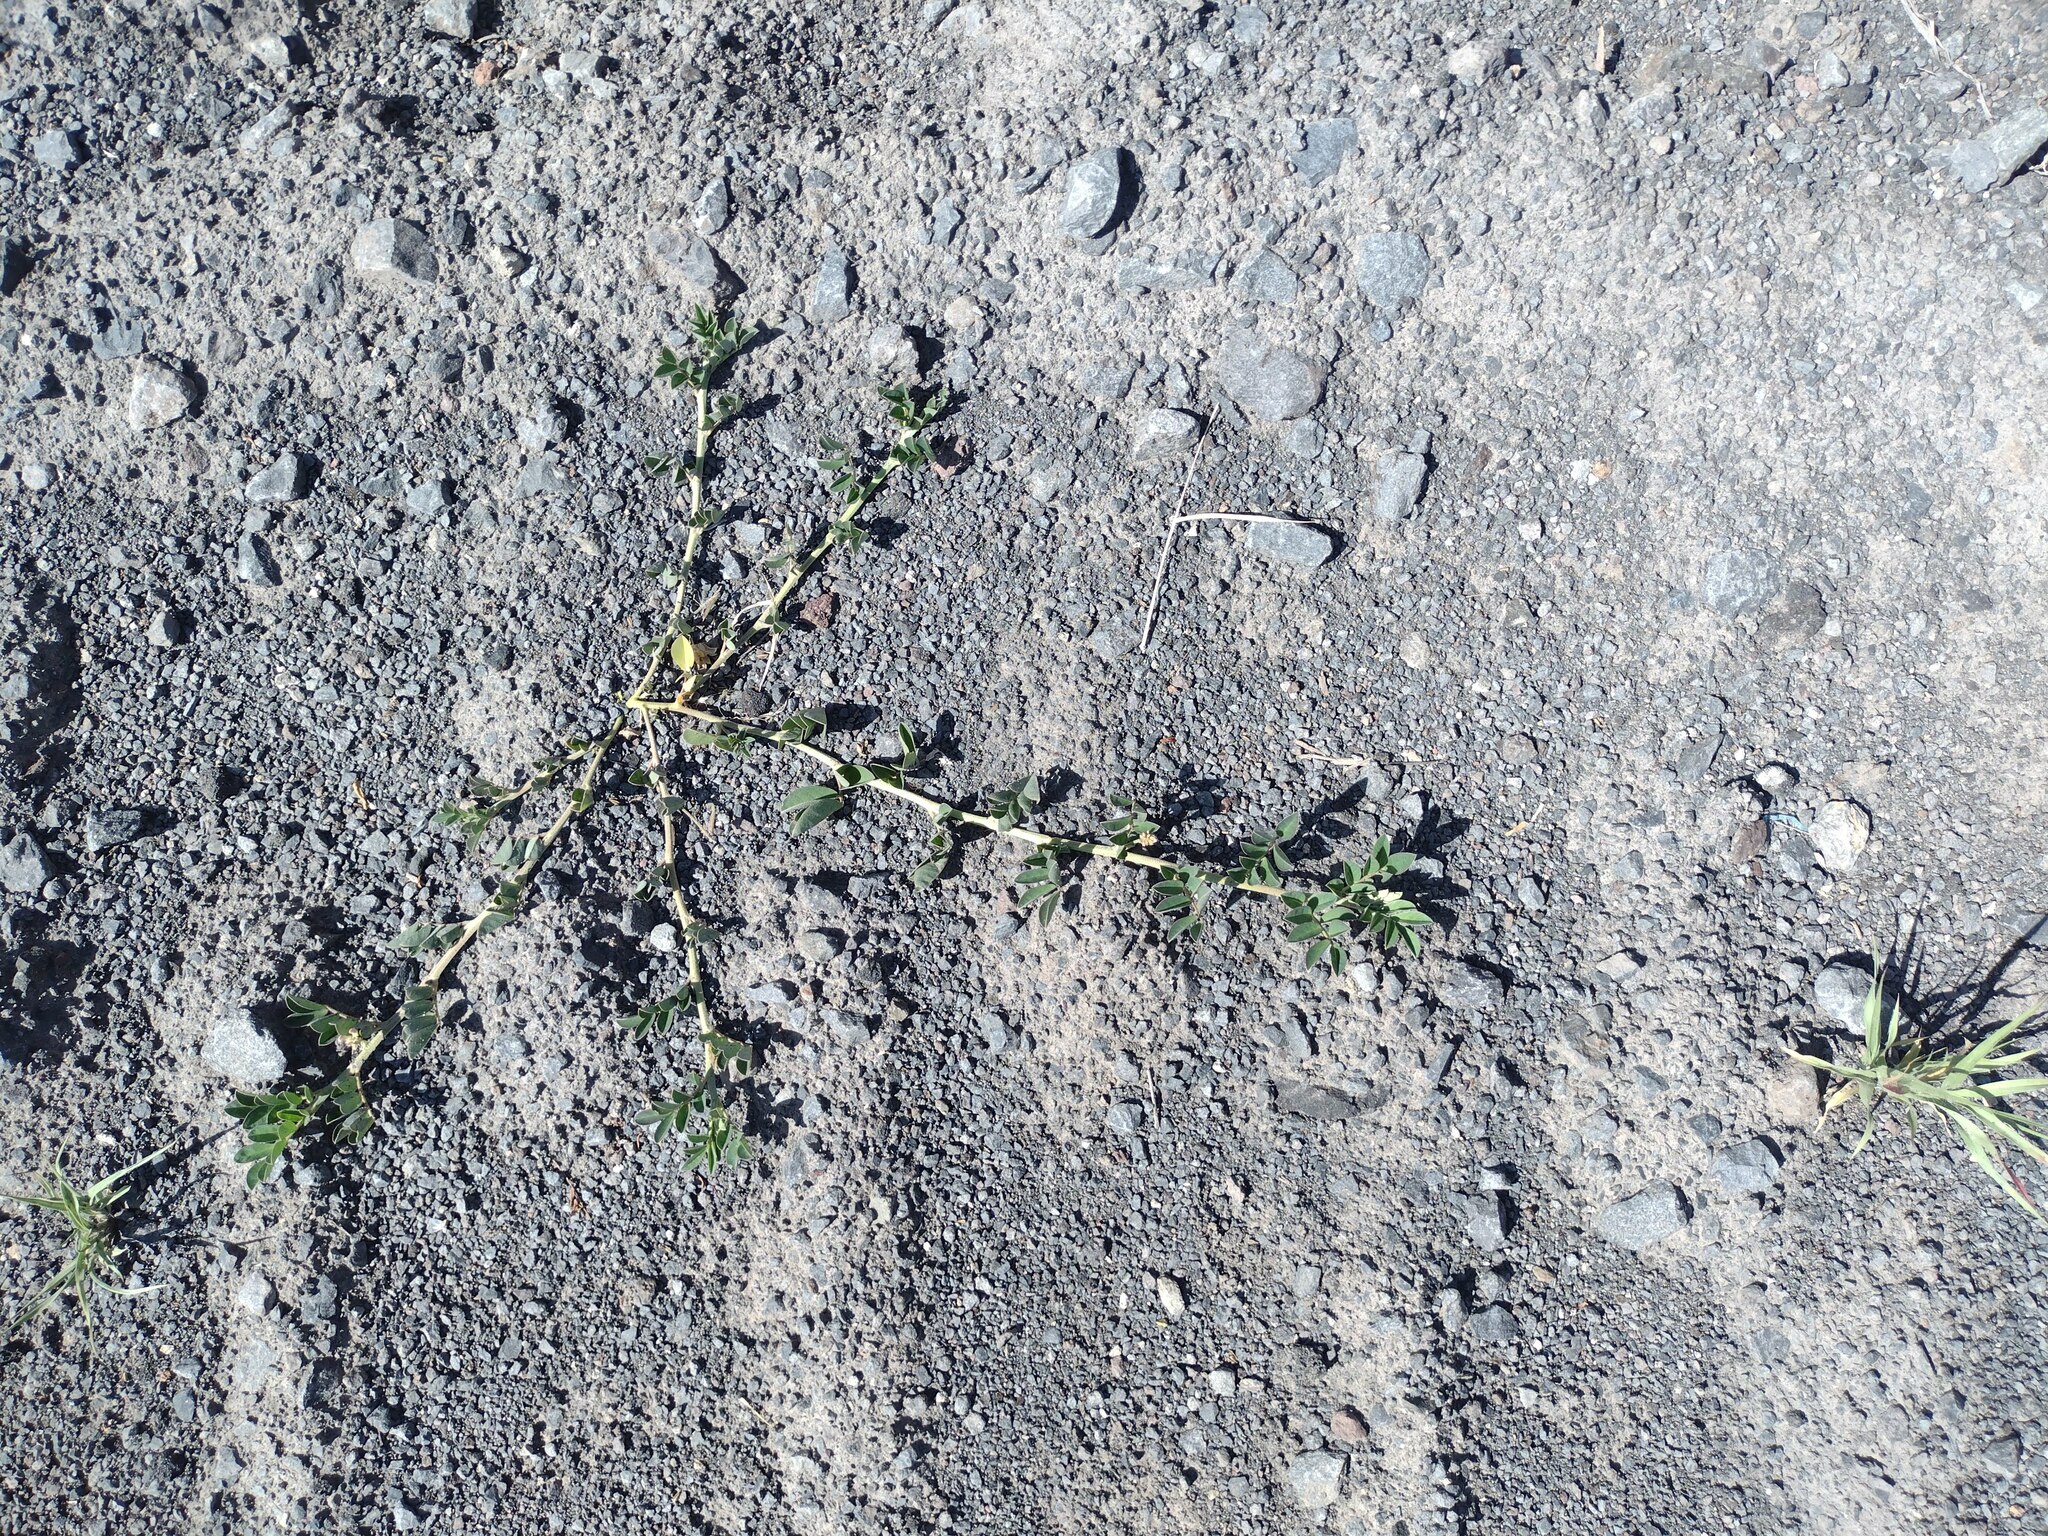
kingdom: Plantae
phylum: Tracheophyta
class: Magnoliopsida
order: Fabales
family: Fabaceae
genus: Indigofera
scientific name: Indigofera spicata
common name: Creeping indigo
